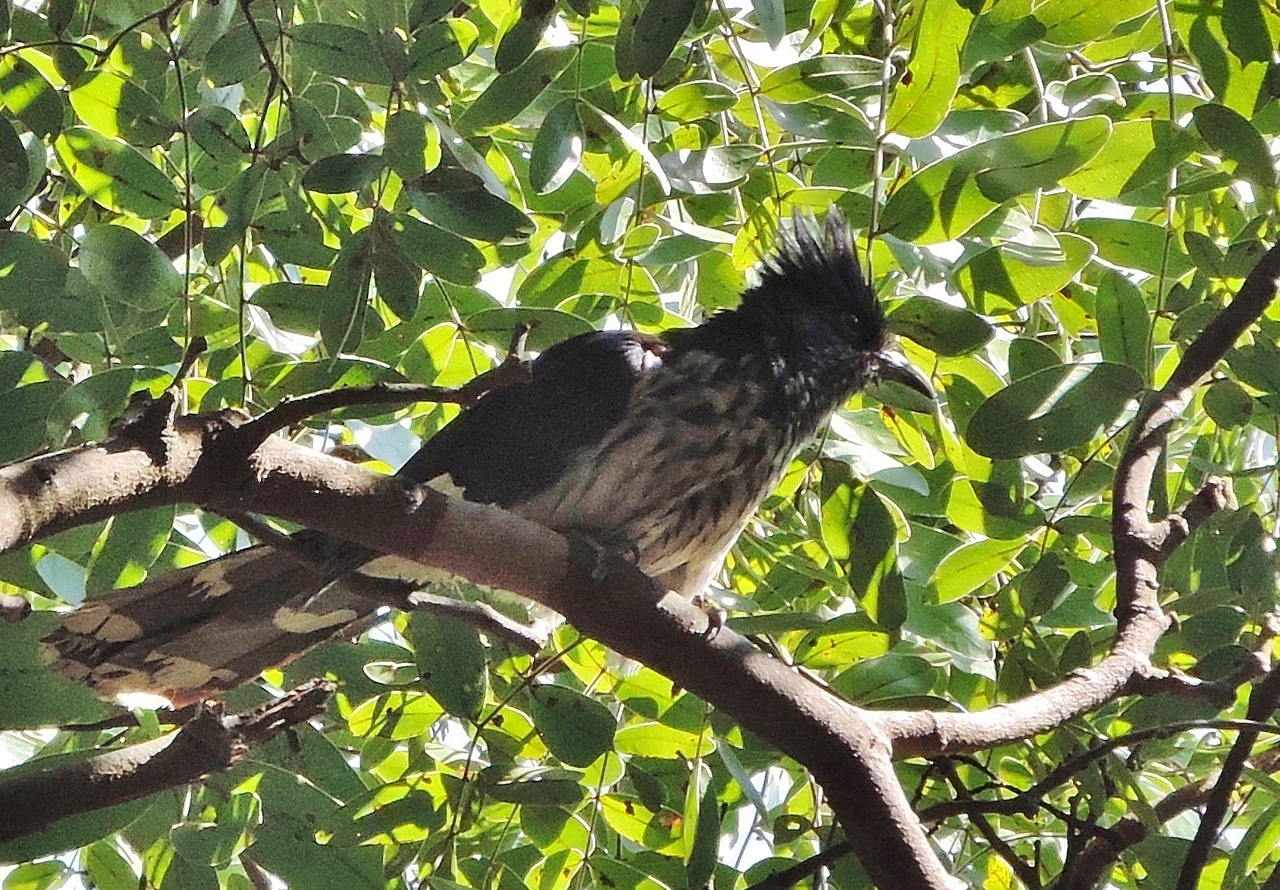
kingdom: Animalia
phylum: Chordata
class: Aves
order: Cuculiformes
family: Cuculidae
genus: Clamator
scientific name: Clamator levaillantii
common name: Levaillant's cuckoo
